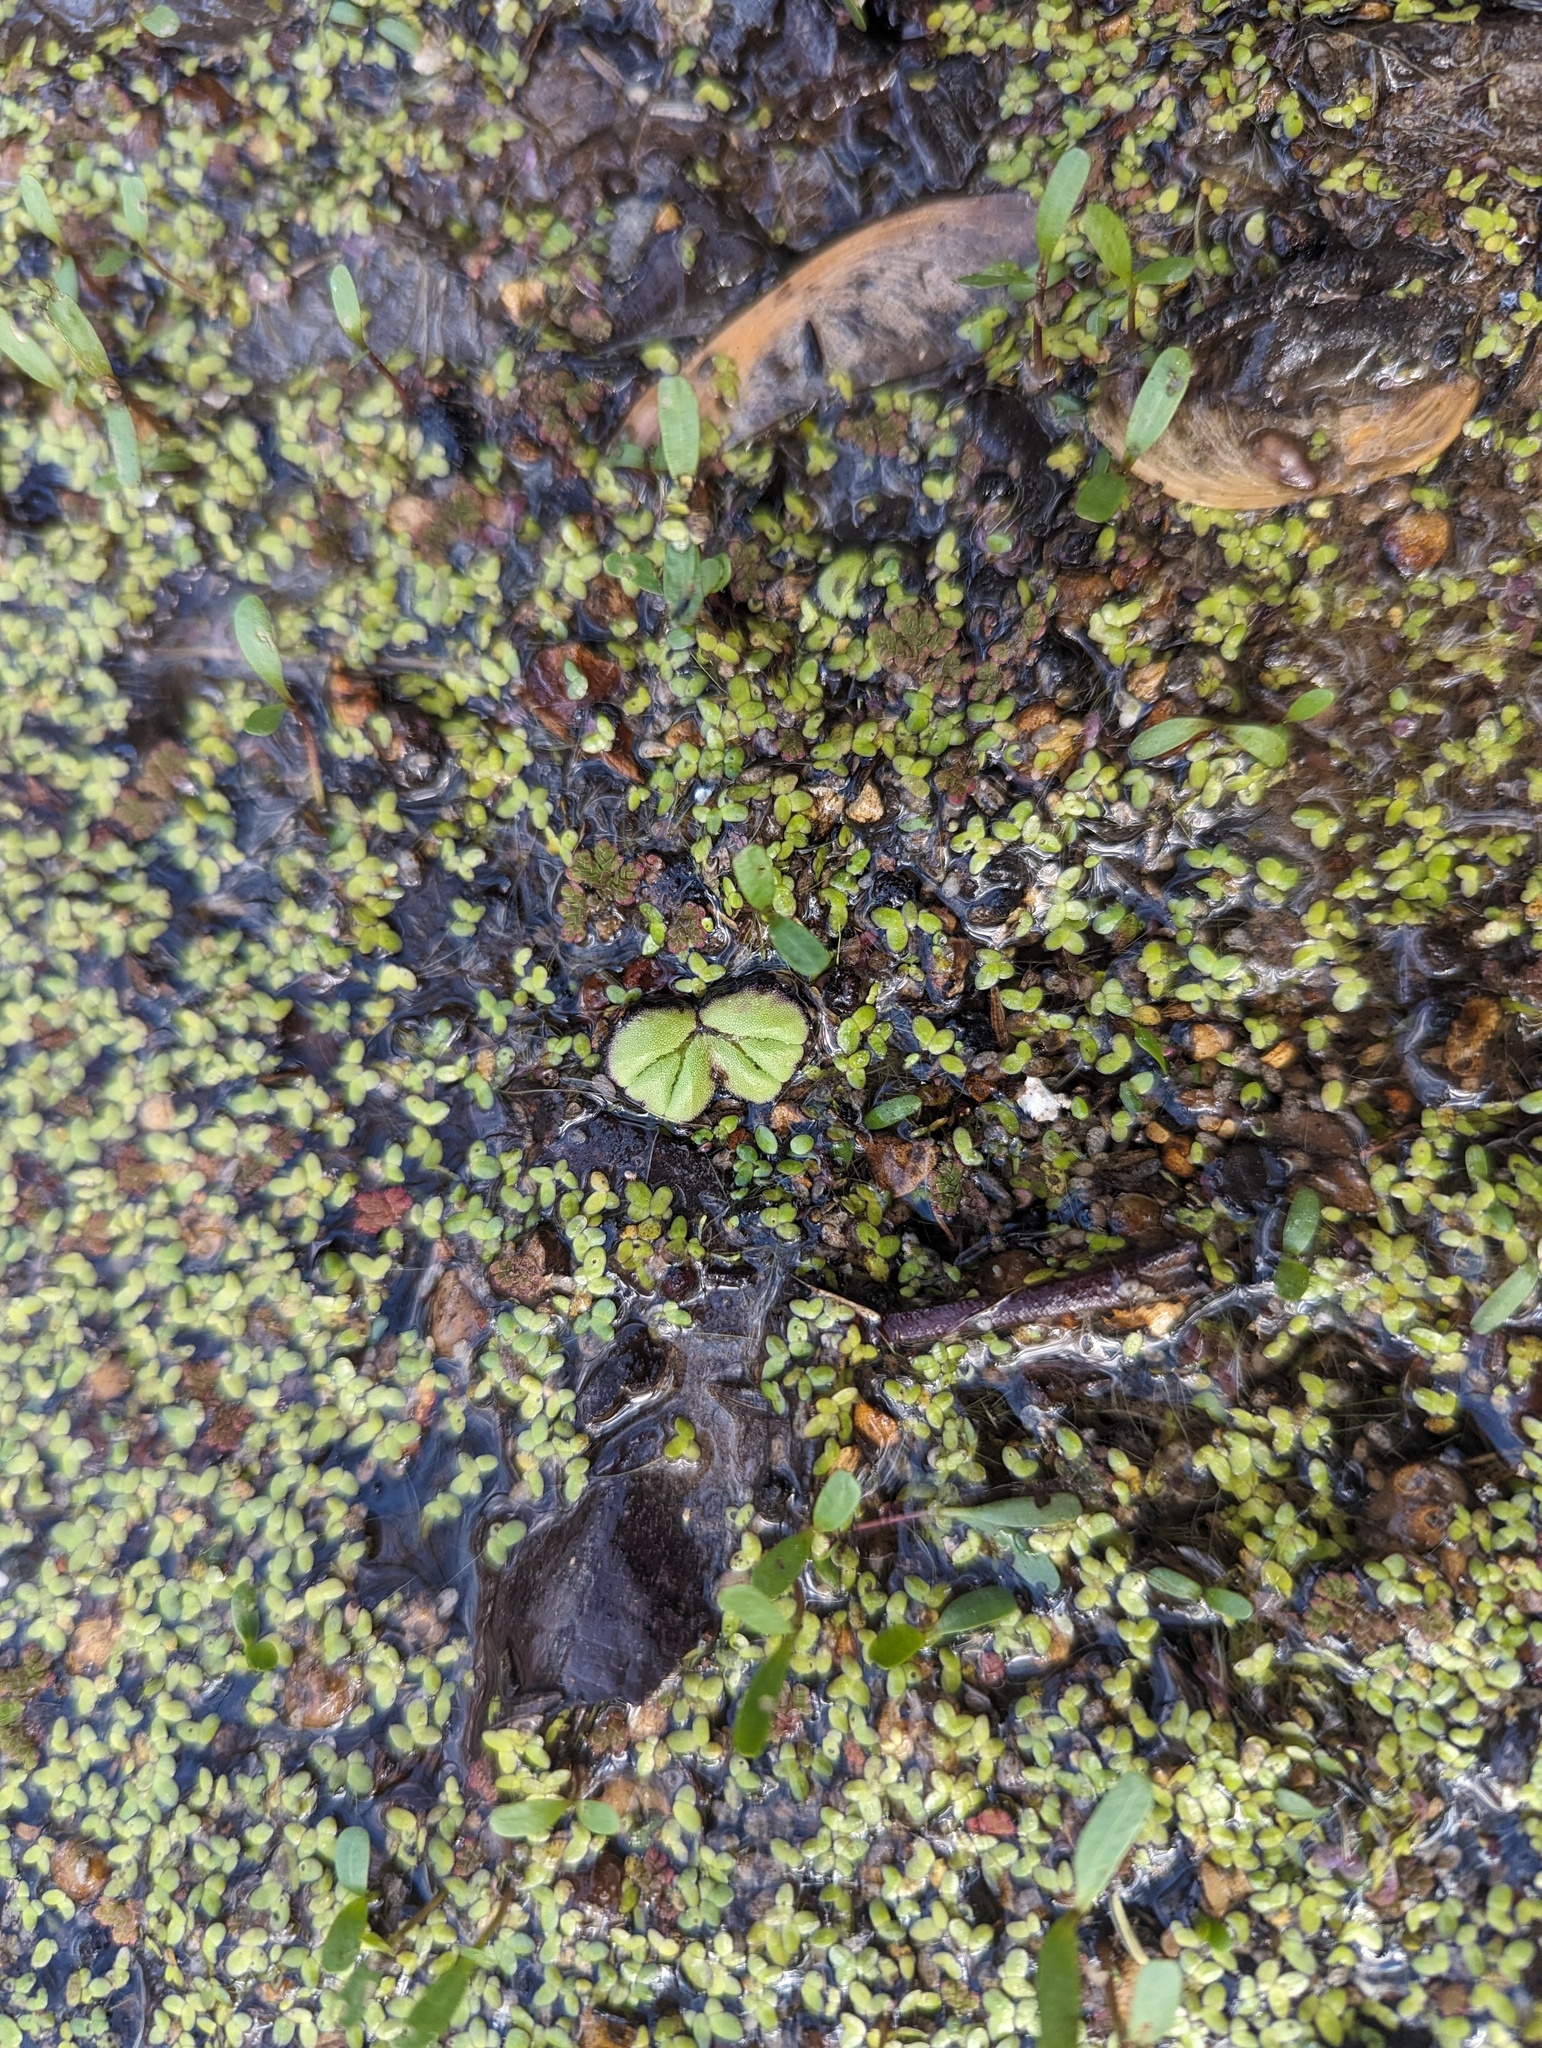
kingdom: Plantae
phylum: Marchantiophyta
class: Marchantiopsida
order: Marchantiales
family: Ricciaceae
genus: Ricciocarpos
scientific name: Ricciocarpos natans
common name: Purple-fringed liverwort
